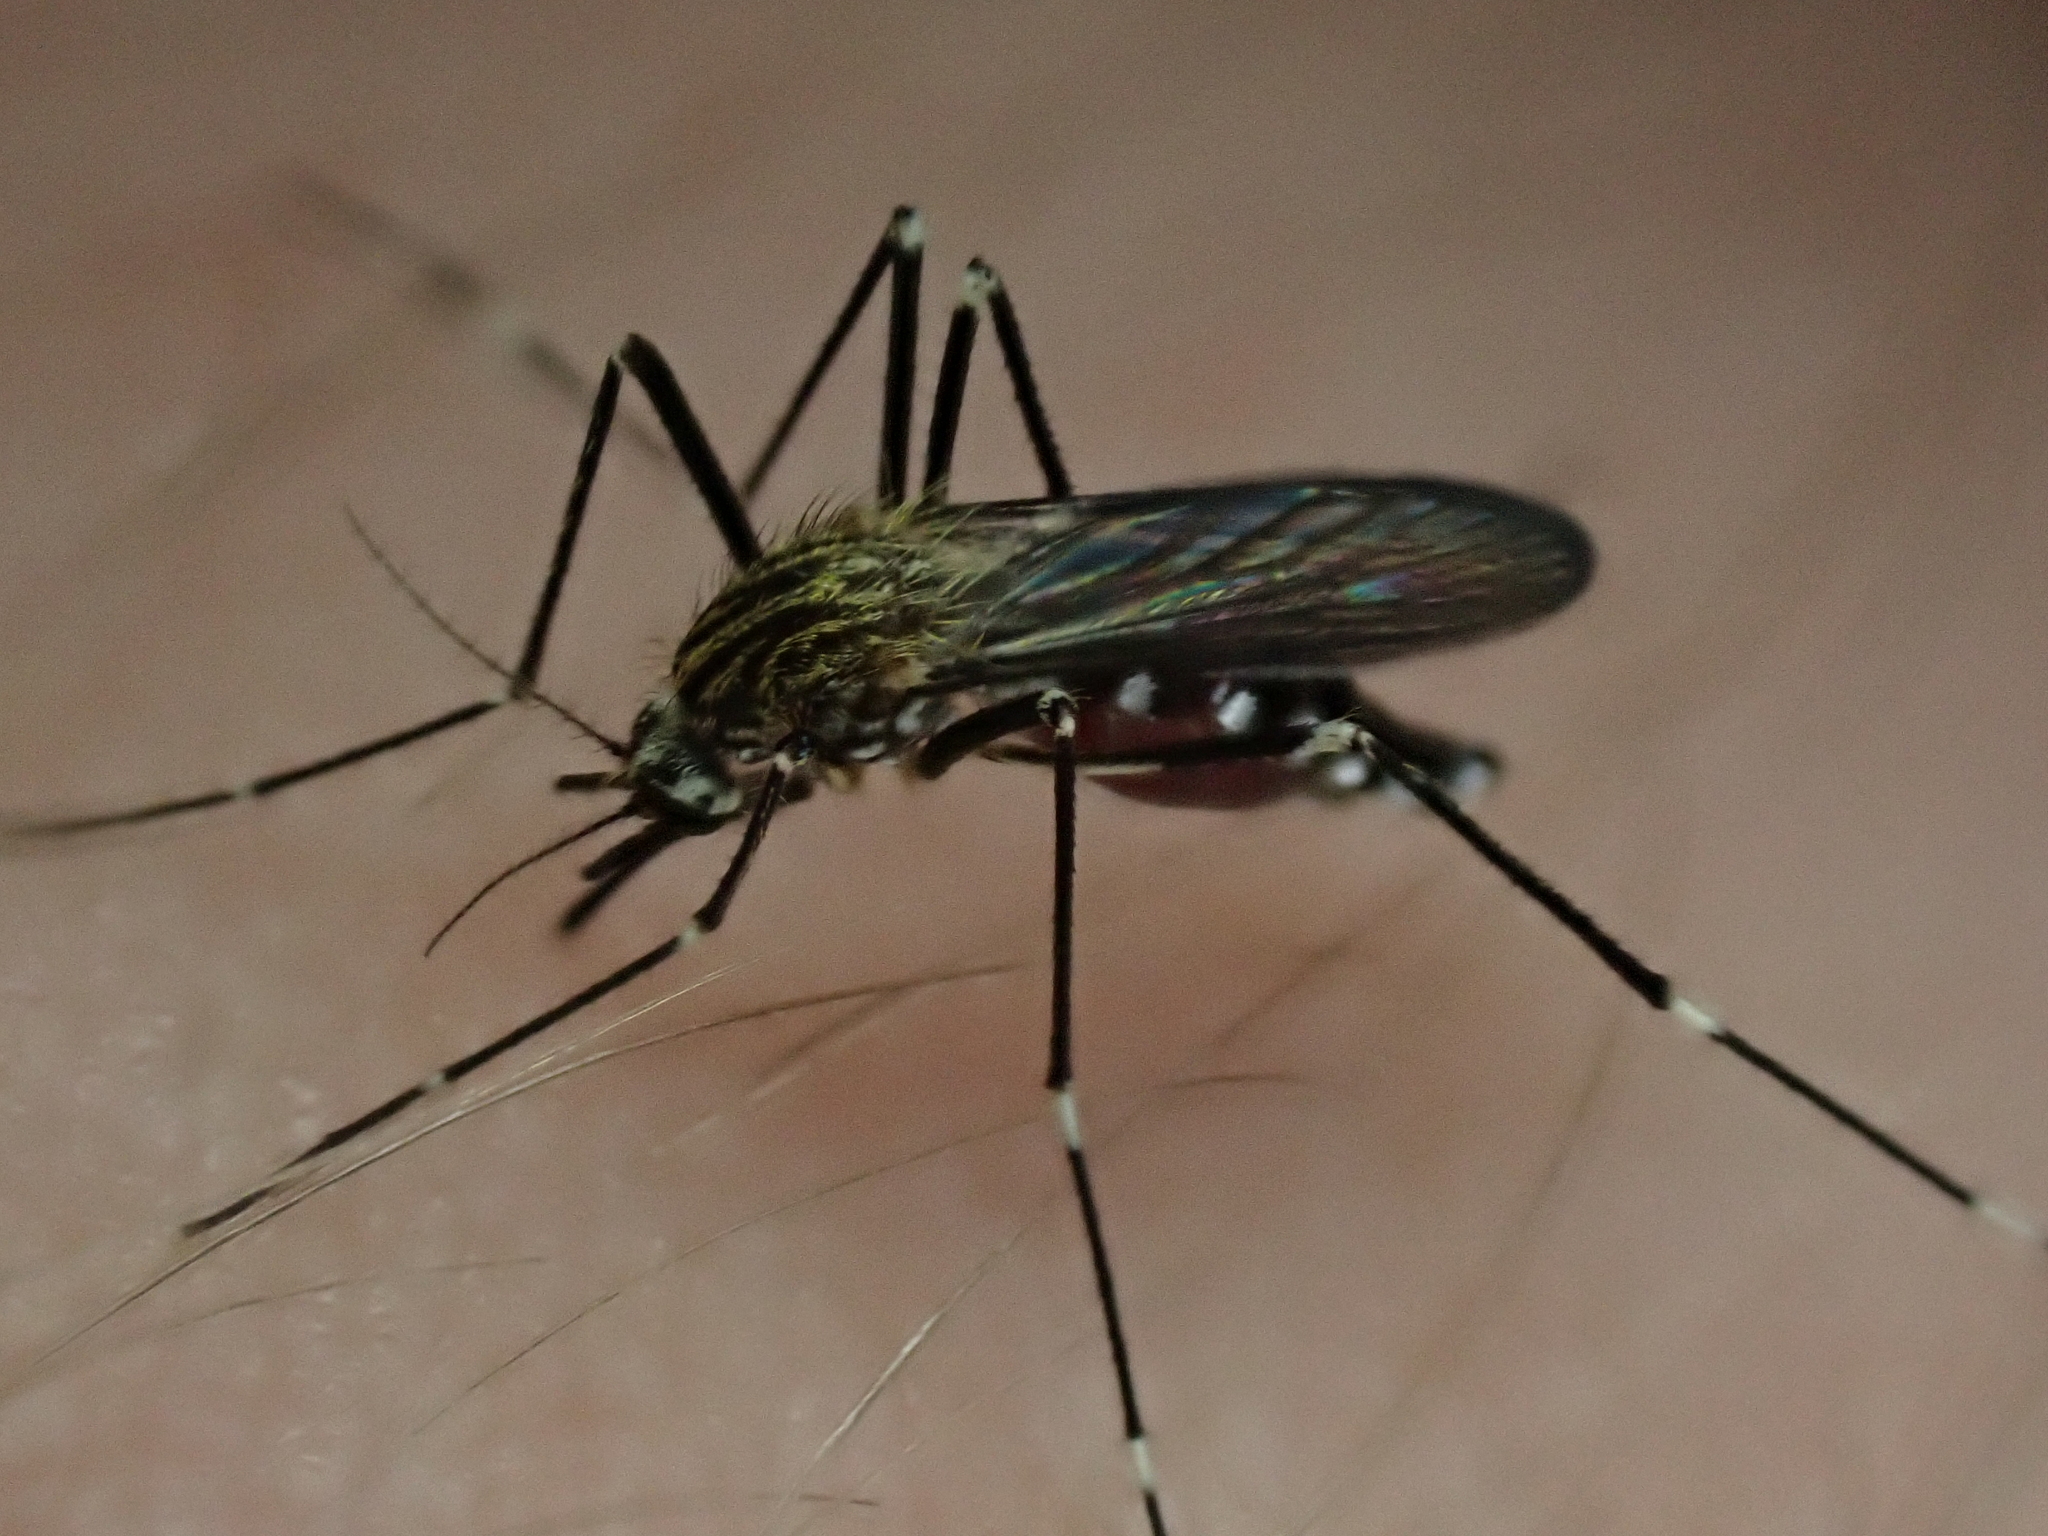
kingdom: Animalia
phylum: Arthropoda
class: Insecta
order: Diptera
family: Culicidae
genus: Aedes
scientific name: Aedes japonicus
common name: Asian bush mosquito
